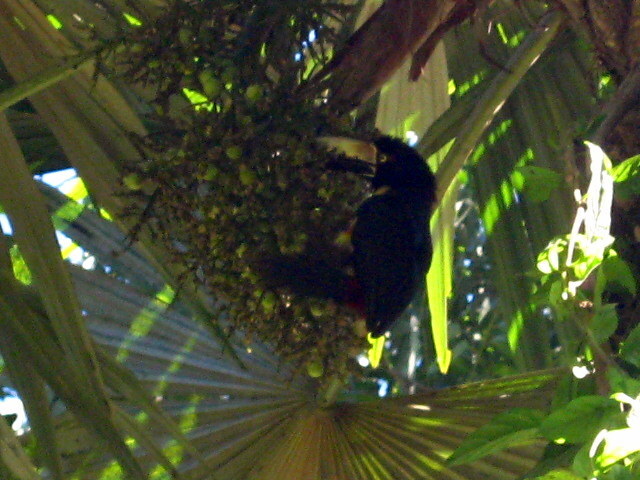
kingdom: Animalia
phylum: Chordata
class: Aves
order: Piciformes
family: Ramphastidae
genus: Pteroglossus
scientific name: Pteroglossus torquatus
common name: Collared aracari
